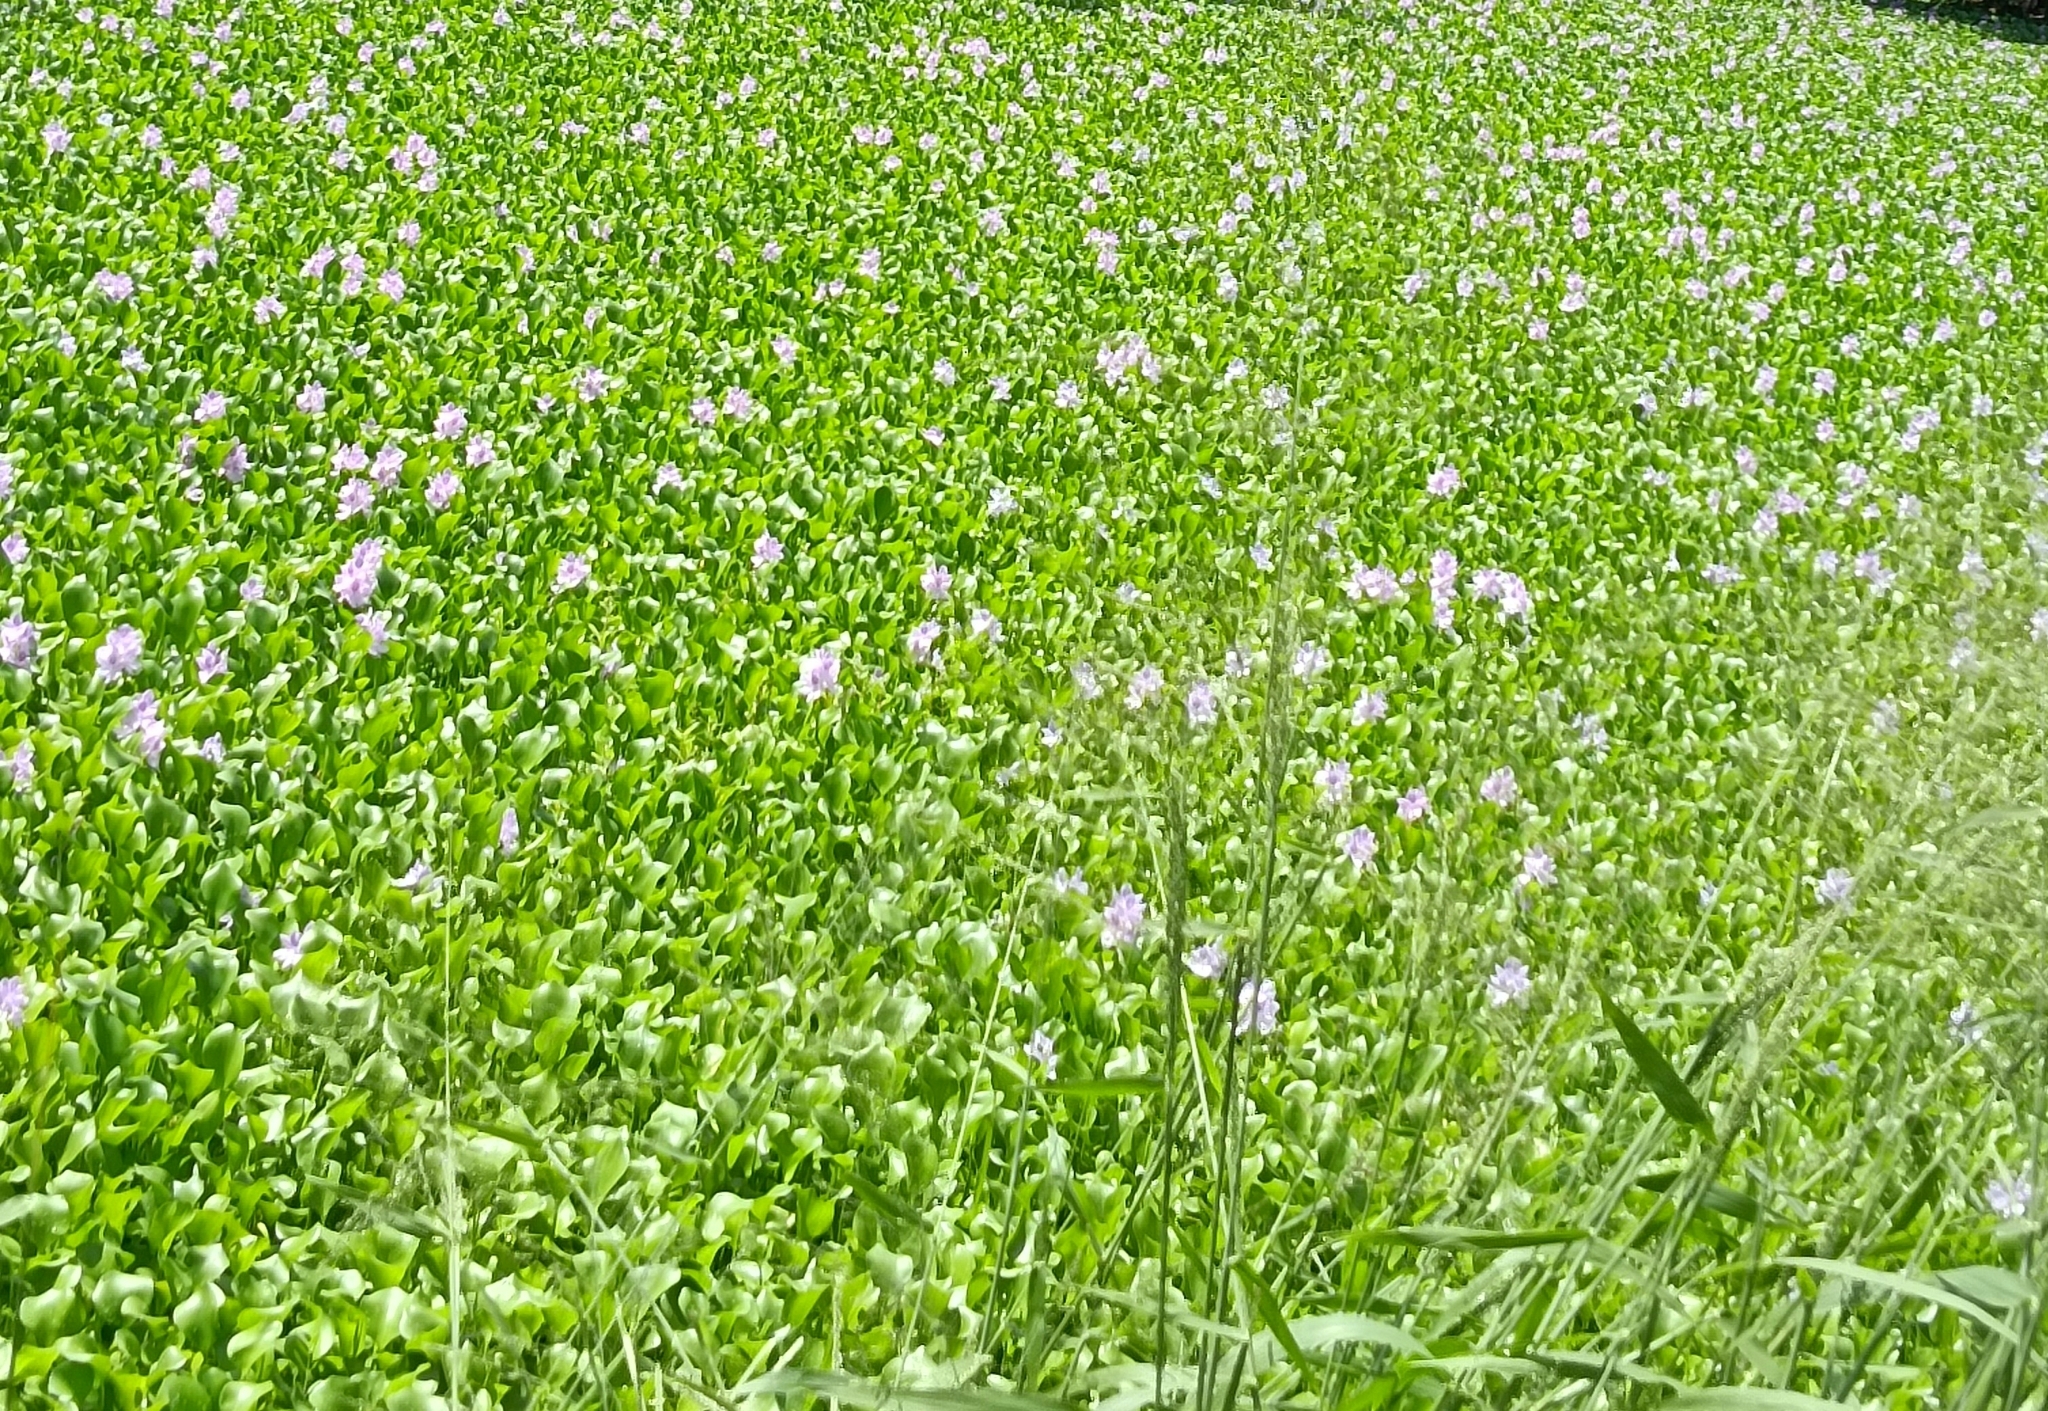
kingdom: Plantae
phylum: Tracheophyta
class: Liliopsida
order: Commelinales
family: Pontederiaceae
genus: Pontederia
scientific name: Pontederia crassipes
